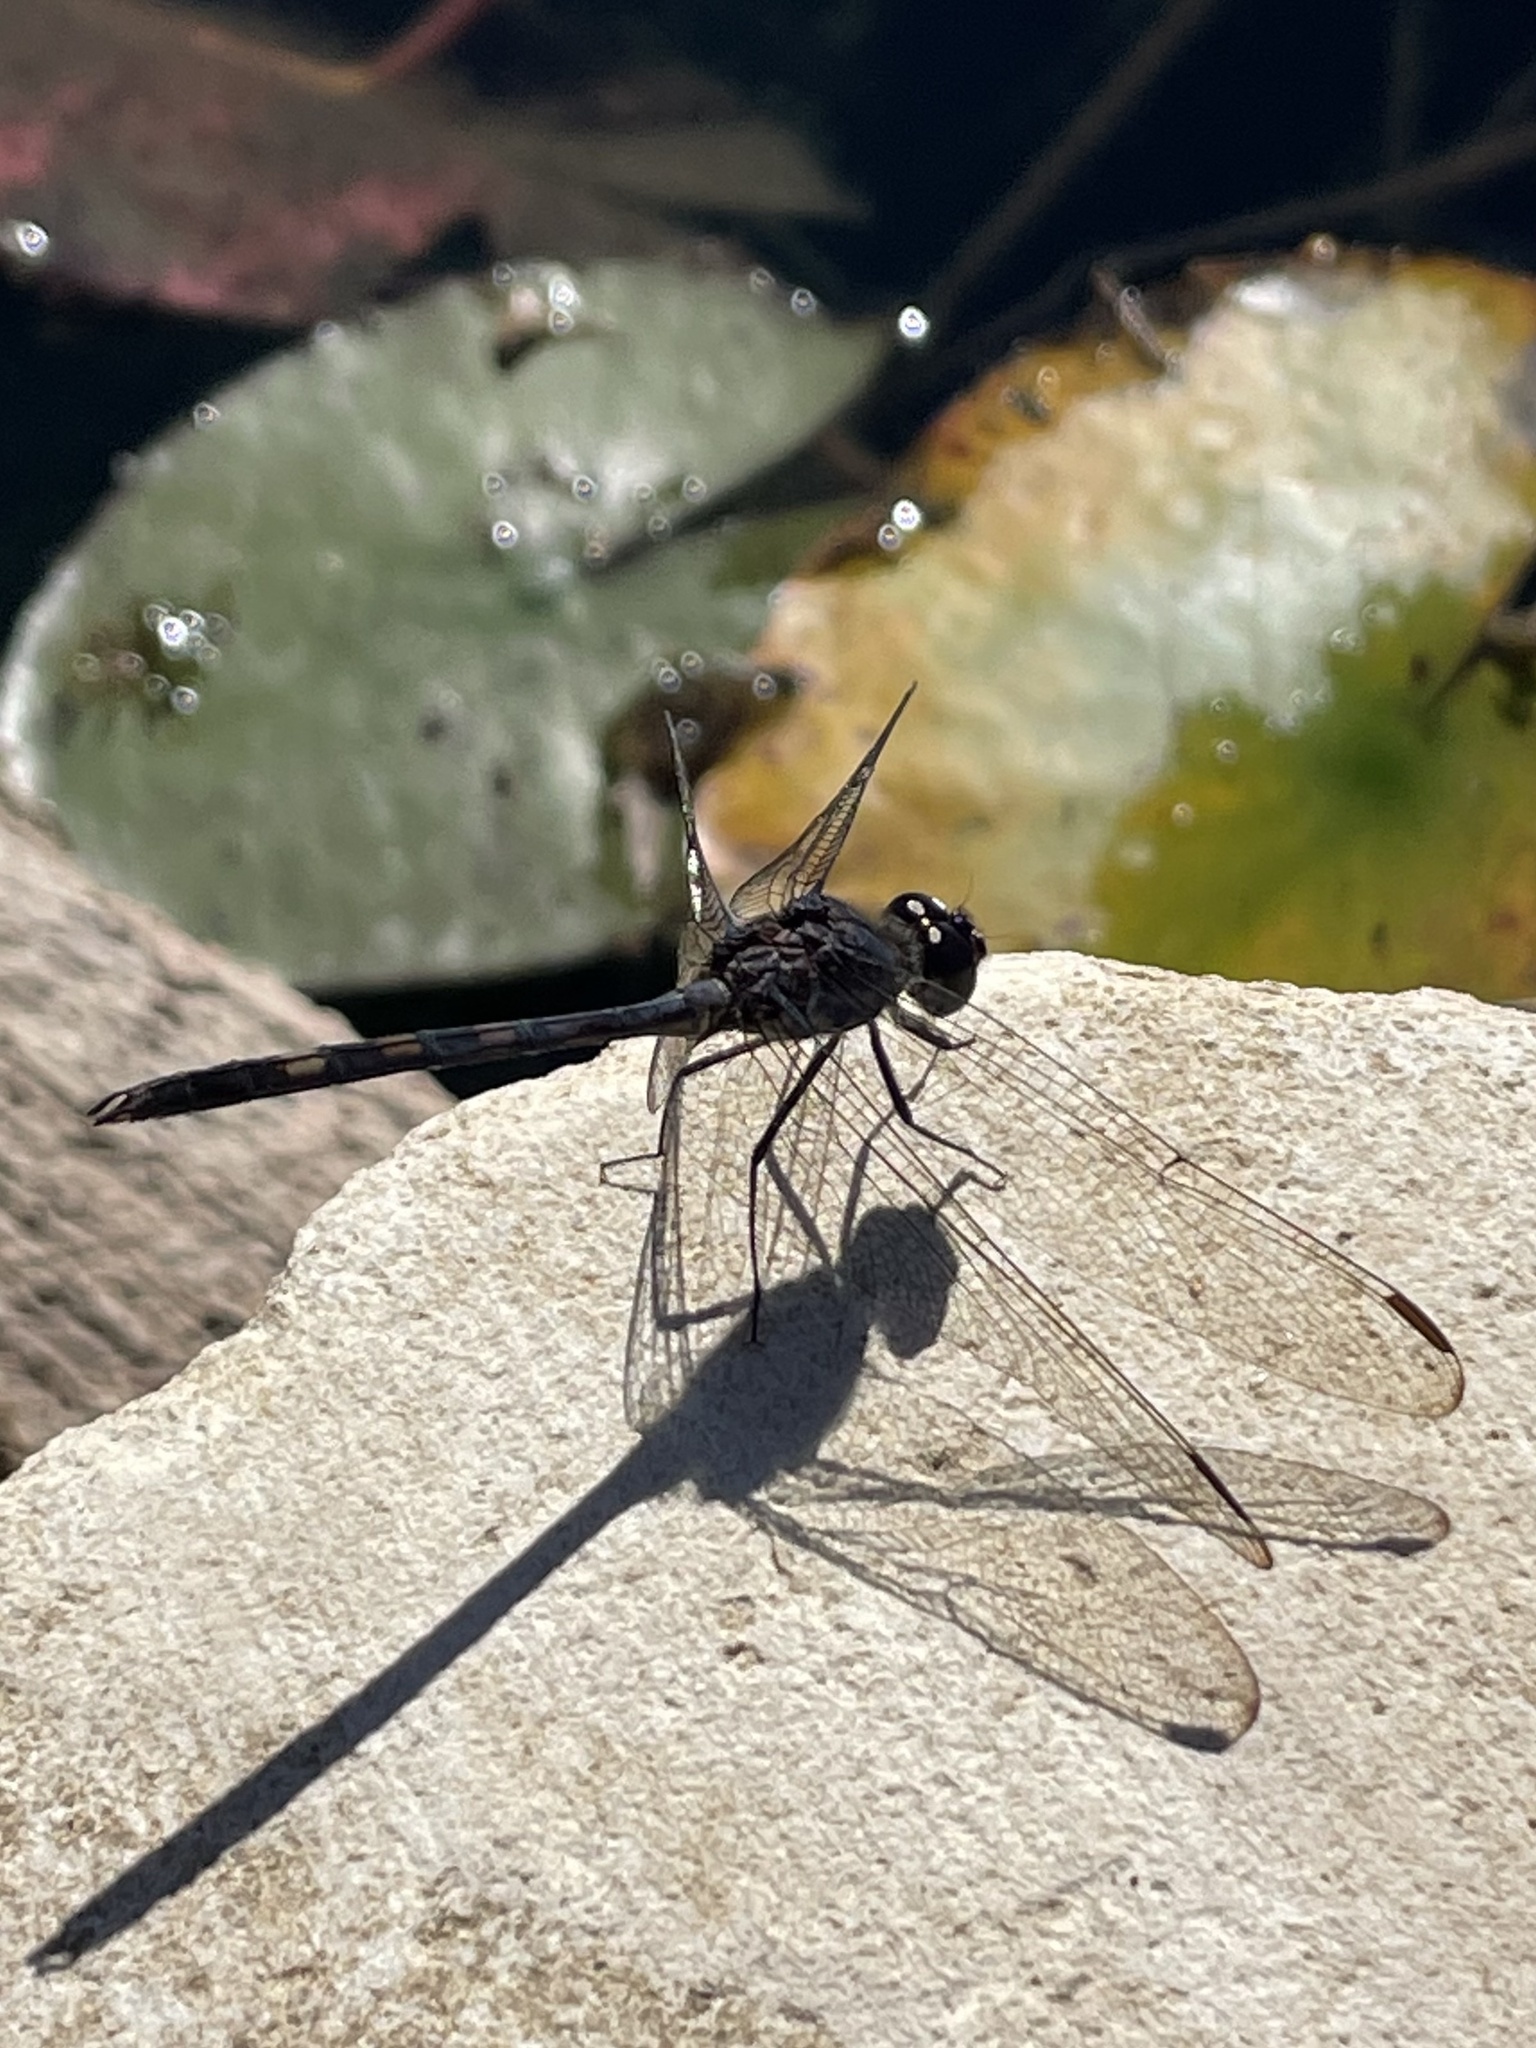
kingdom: Animalia
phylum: Arthropoda
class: Insecta
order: Odonata
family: Libellulidae
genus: Dythemis
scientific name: Dythemis nigrescens
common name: Black setwing
